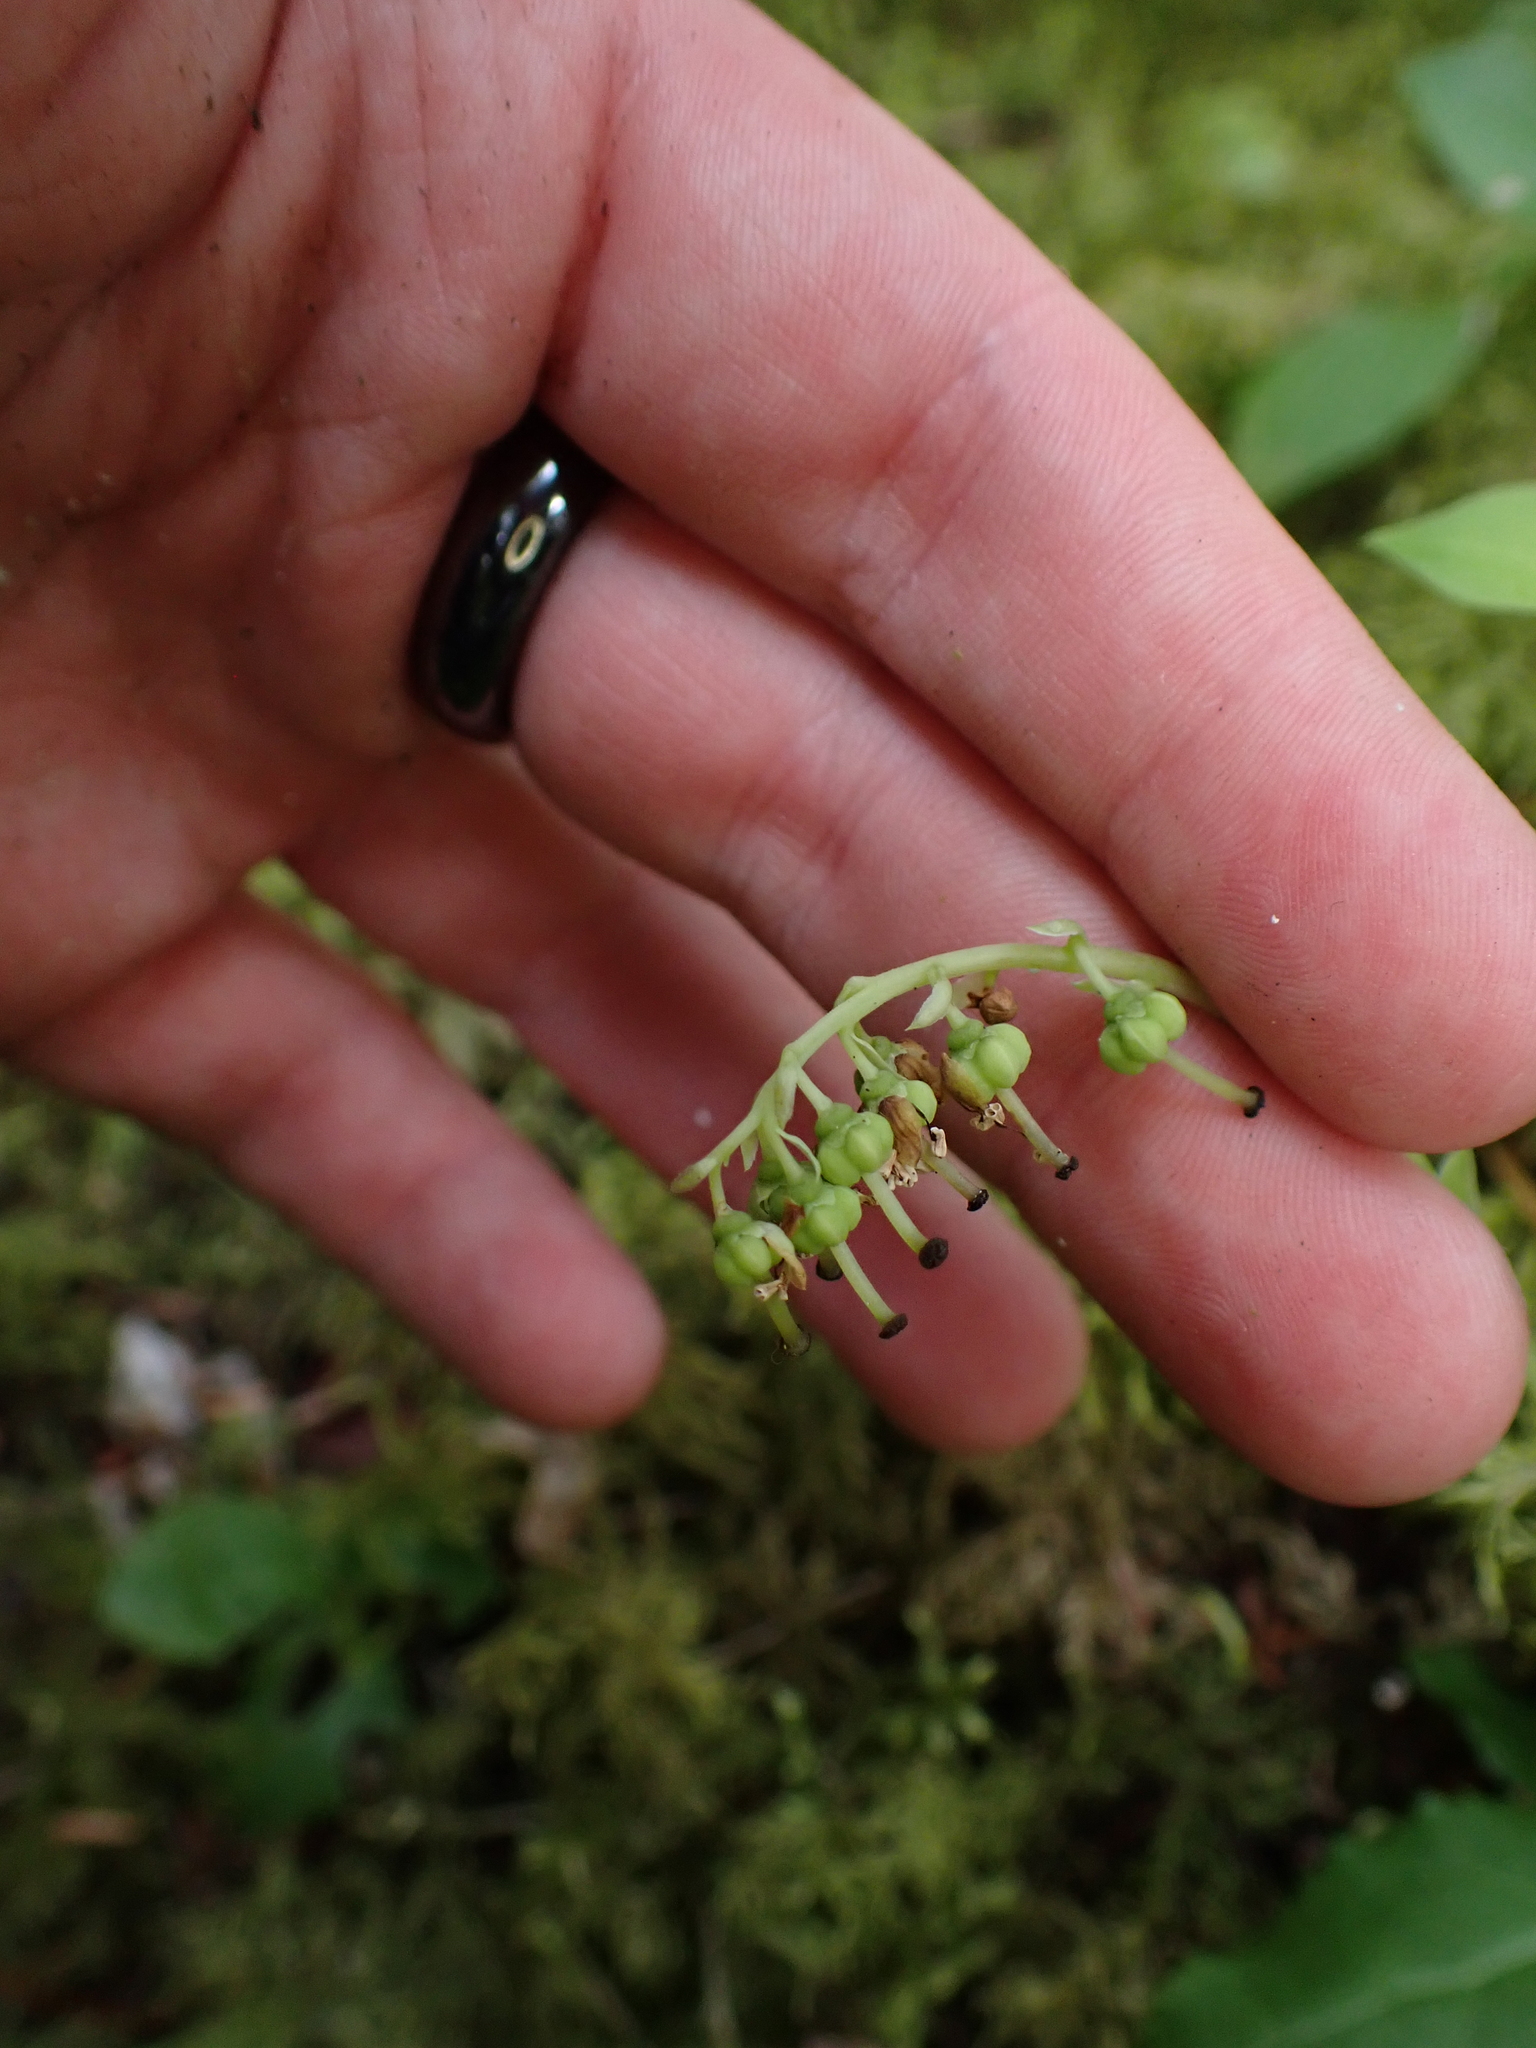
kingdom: Plantae
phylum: Tracheophyta
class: Magnoliopsida
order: Ericales
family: Ericaceae
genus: Orthilia
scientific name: Orthilia secunda
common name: One-sided orthilia
